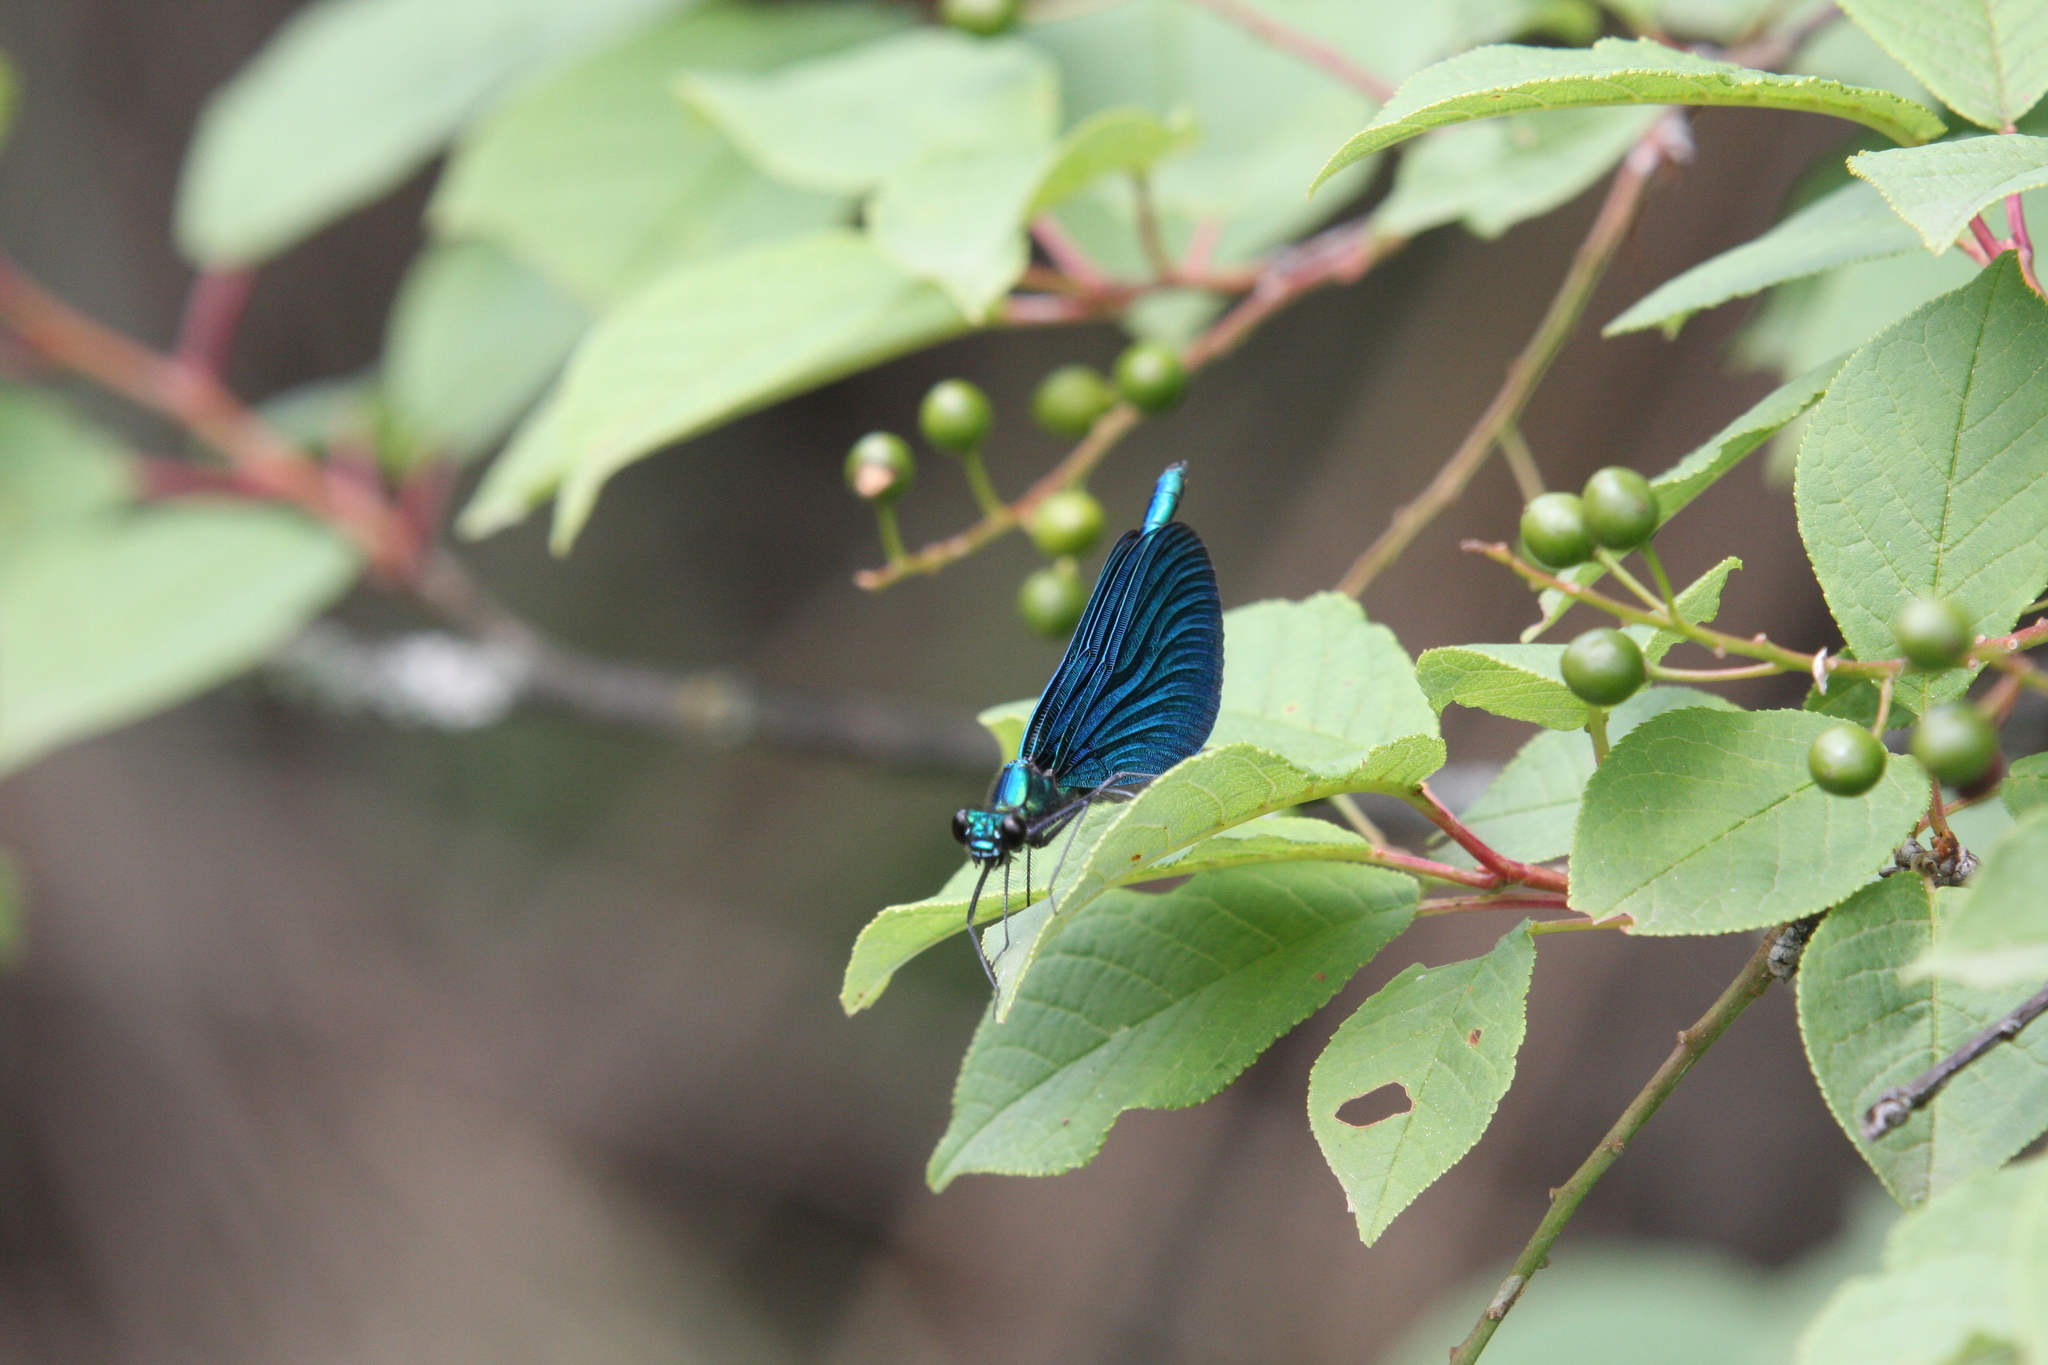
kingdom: Animalia
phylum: Arthropoda
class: Insecta
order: Odonata
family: Calopterygidae
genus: Calopteryx
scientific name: Calopteryx virgo
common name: Beautiful demoiselle
